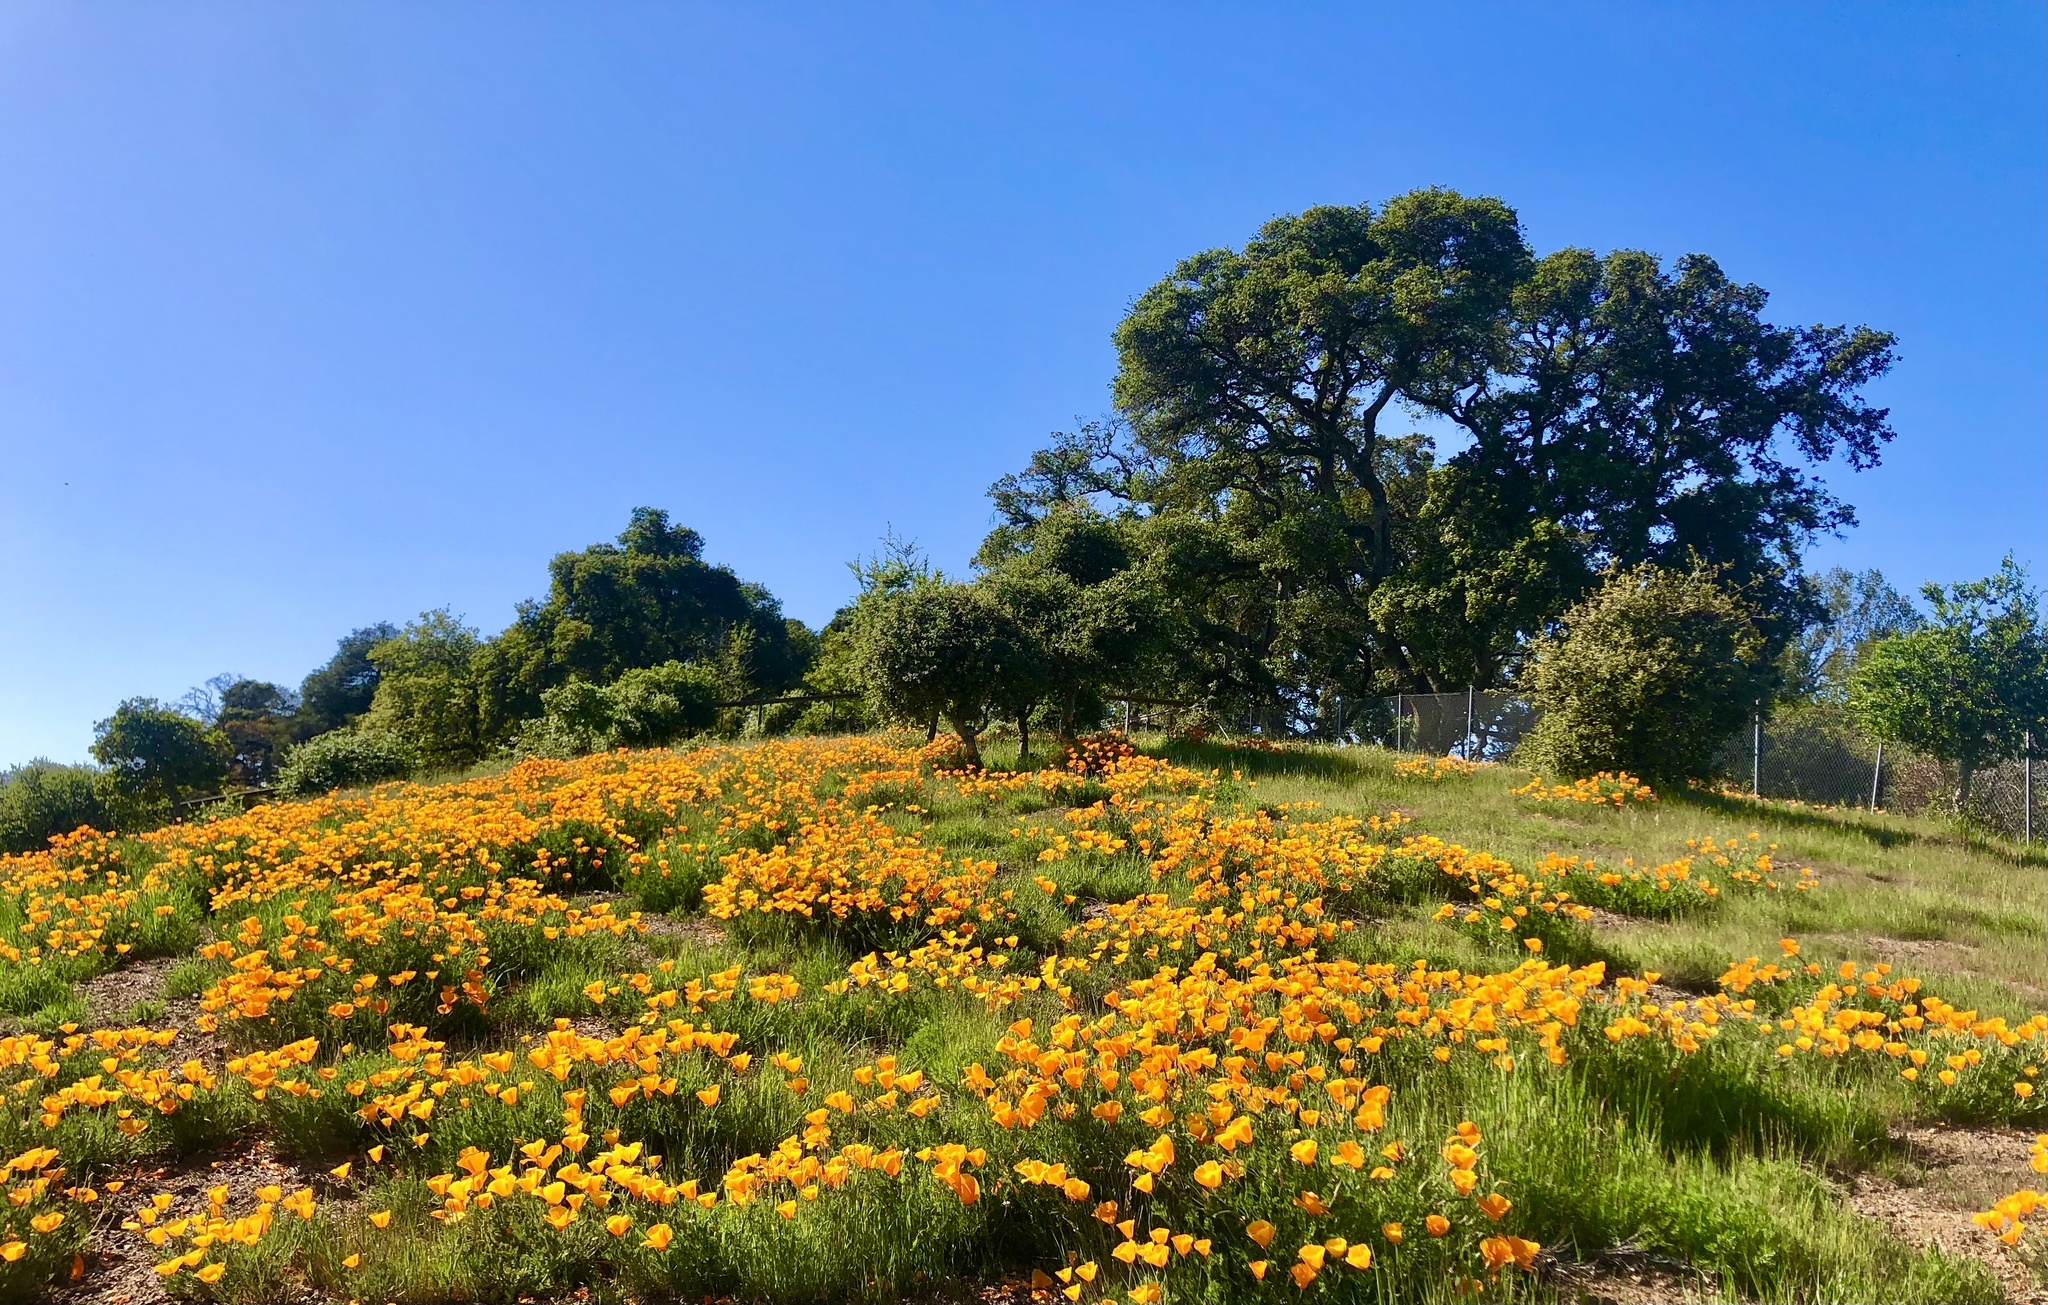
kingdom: Plantae
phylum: Tracheophyta
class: Magnoliopsida
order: Ranunculales
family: Papaveraceae
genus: Eschscholzia
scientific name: Eschscholzia californica
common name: California poppy
